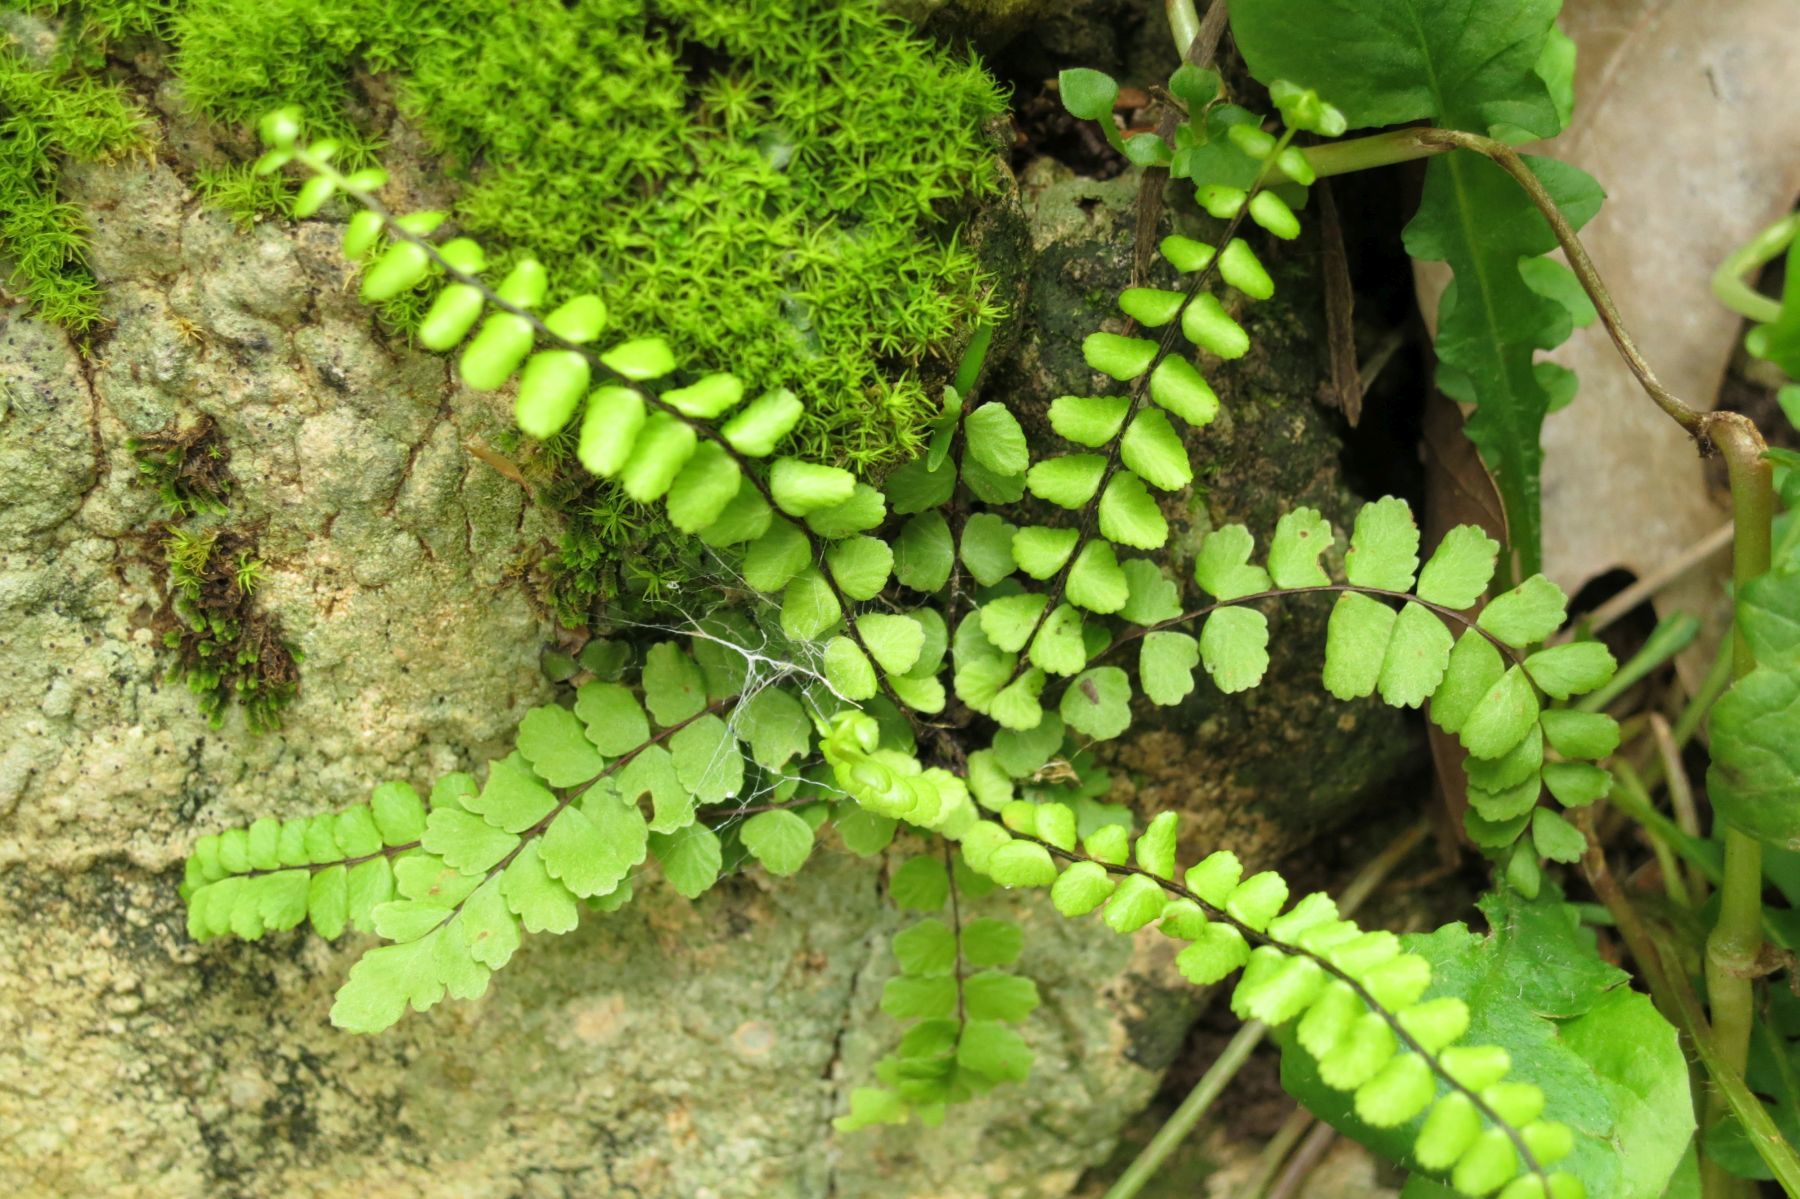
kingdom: Plantae
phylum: Tracheophyta
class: Polypodiopsida
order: Polypodiales
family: Aspleniaceae
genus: Asplenium
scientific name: Asplenium quadrivalens
